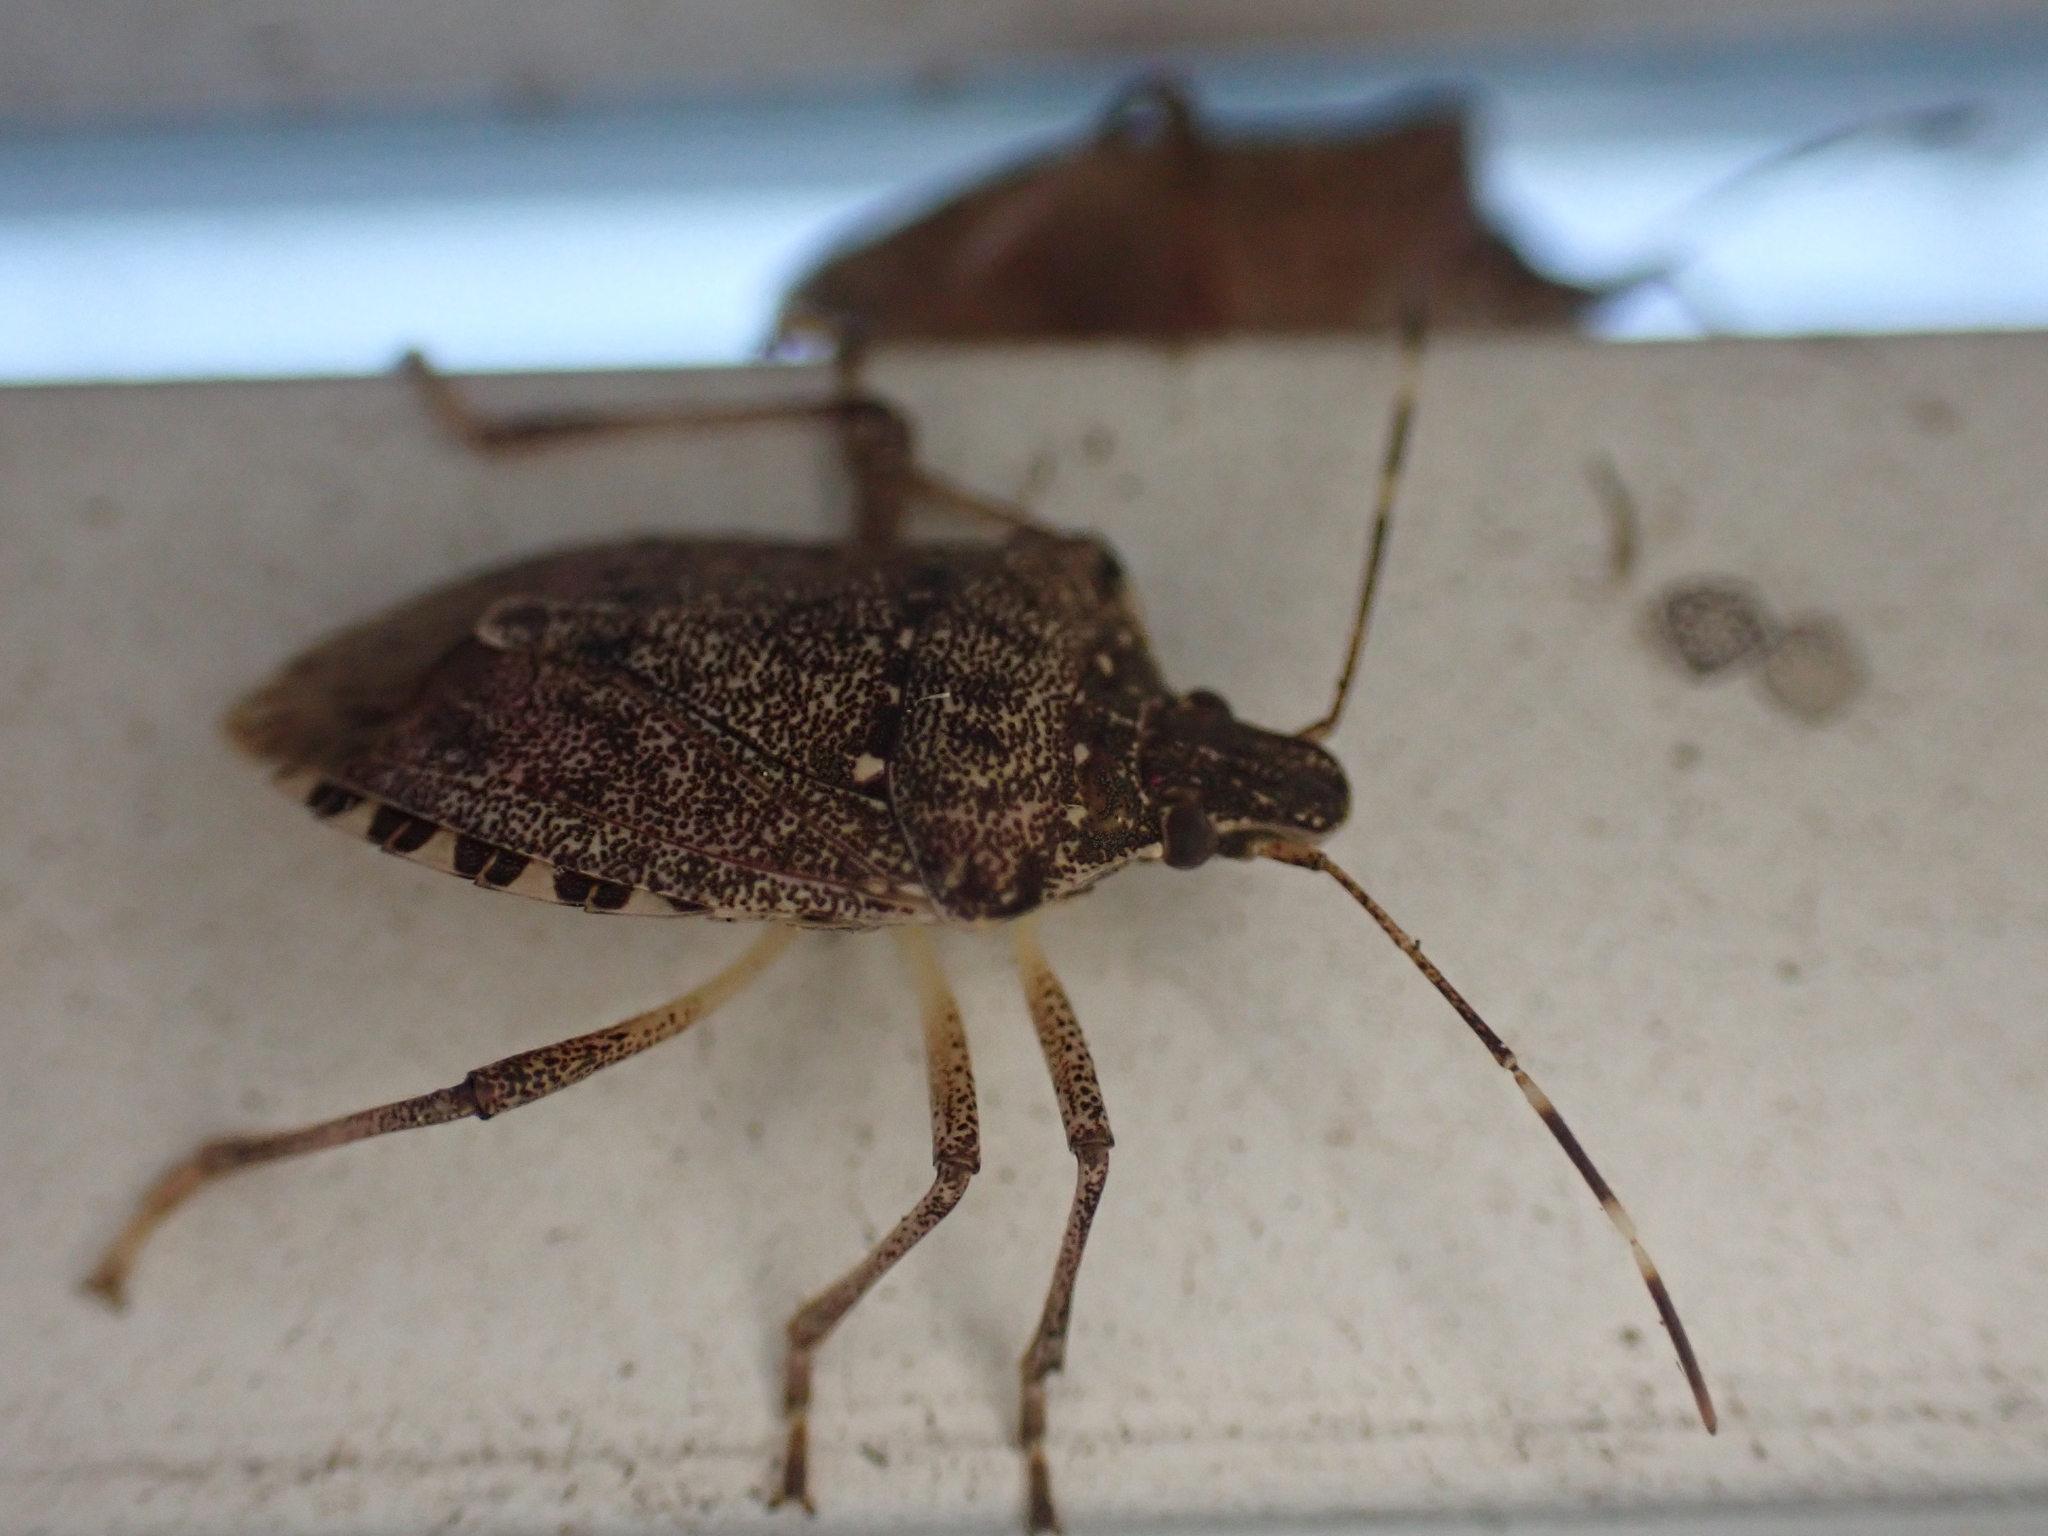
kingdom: Animalia
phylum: Arthropoda
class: Insecta
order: Hemiptera
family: Pentatomidae
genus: Halyomorpha
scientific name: Halyomorpha halys
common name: Brown marmorated stink bug
